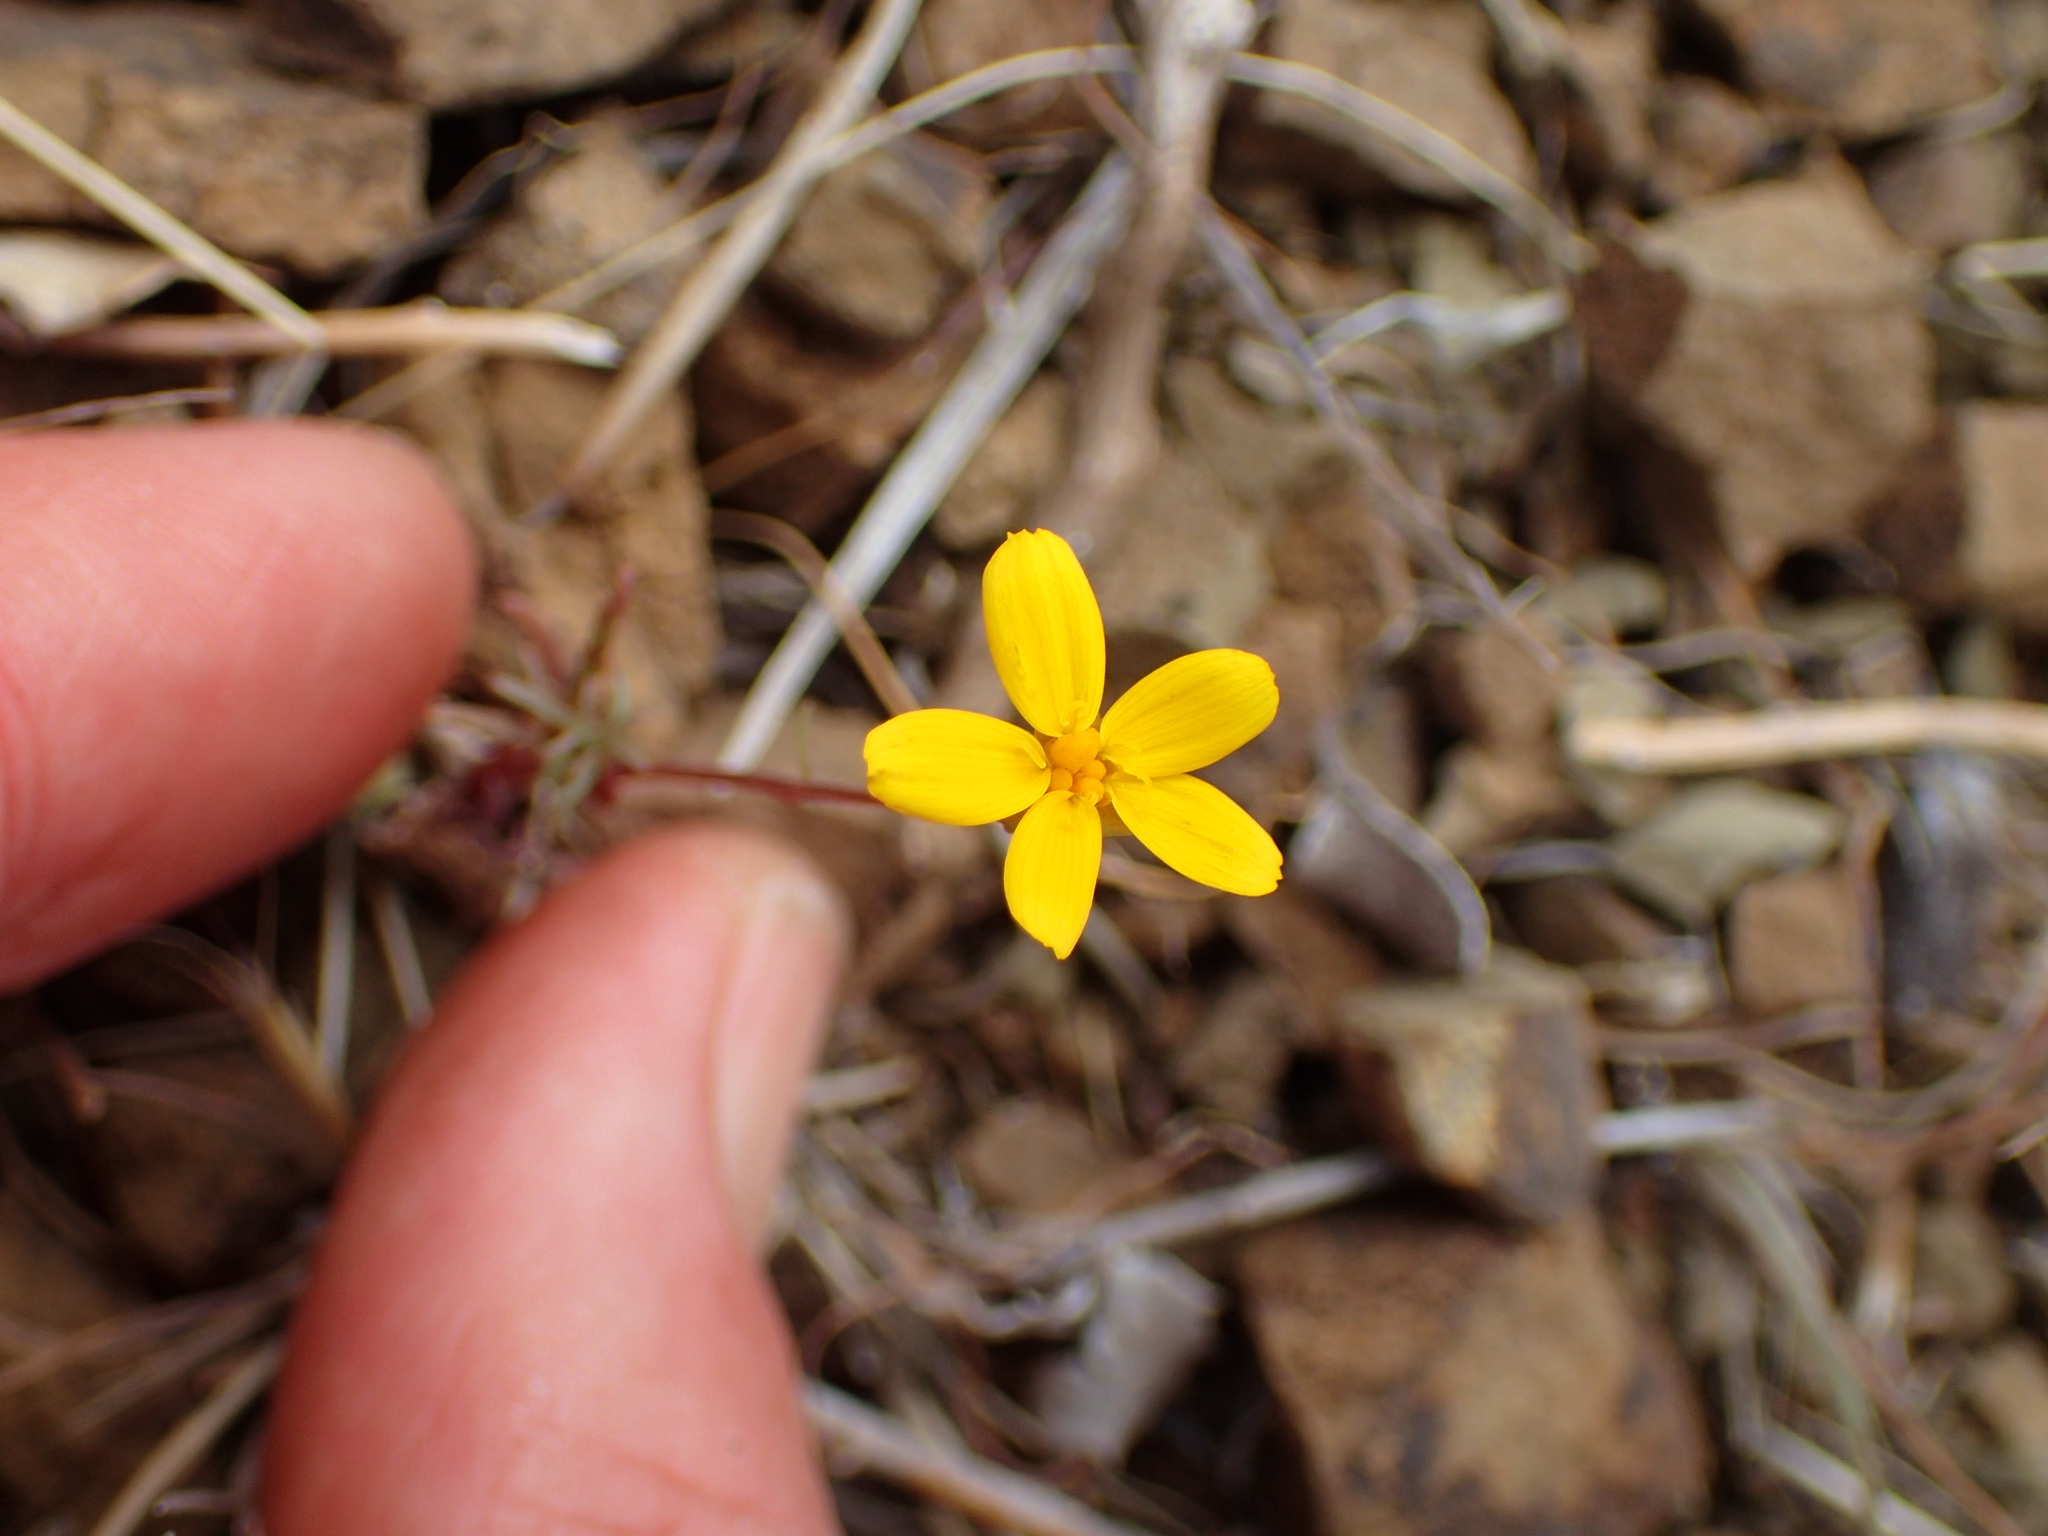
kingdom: Plantae
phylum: Tracheophyta
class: Magnoliopsida
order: Asterales
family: Asteraceae
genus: Coreopsis
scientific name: Coreopsis bigelovii
